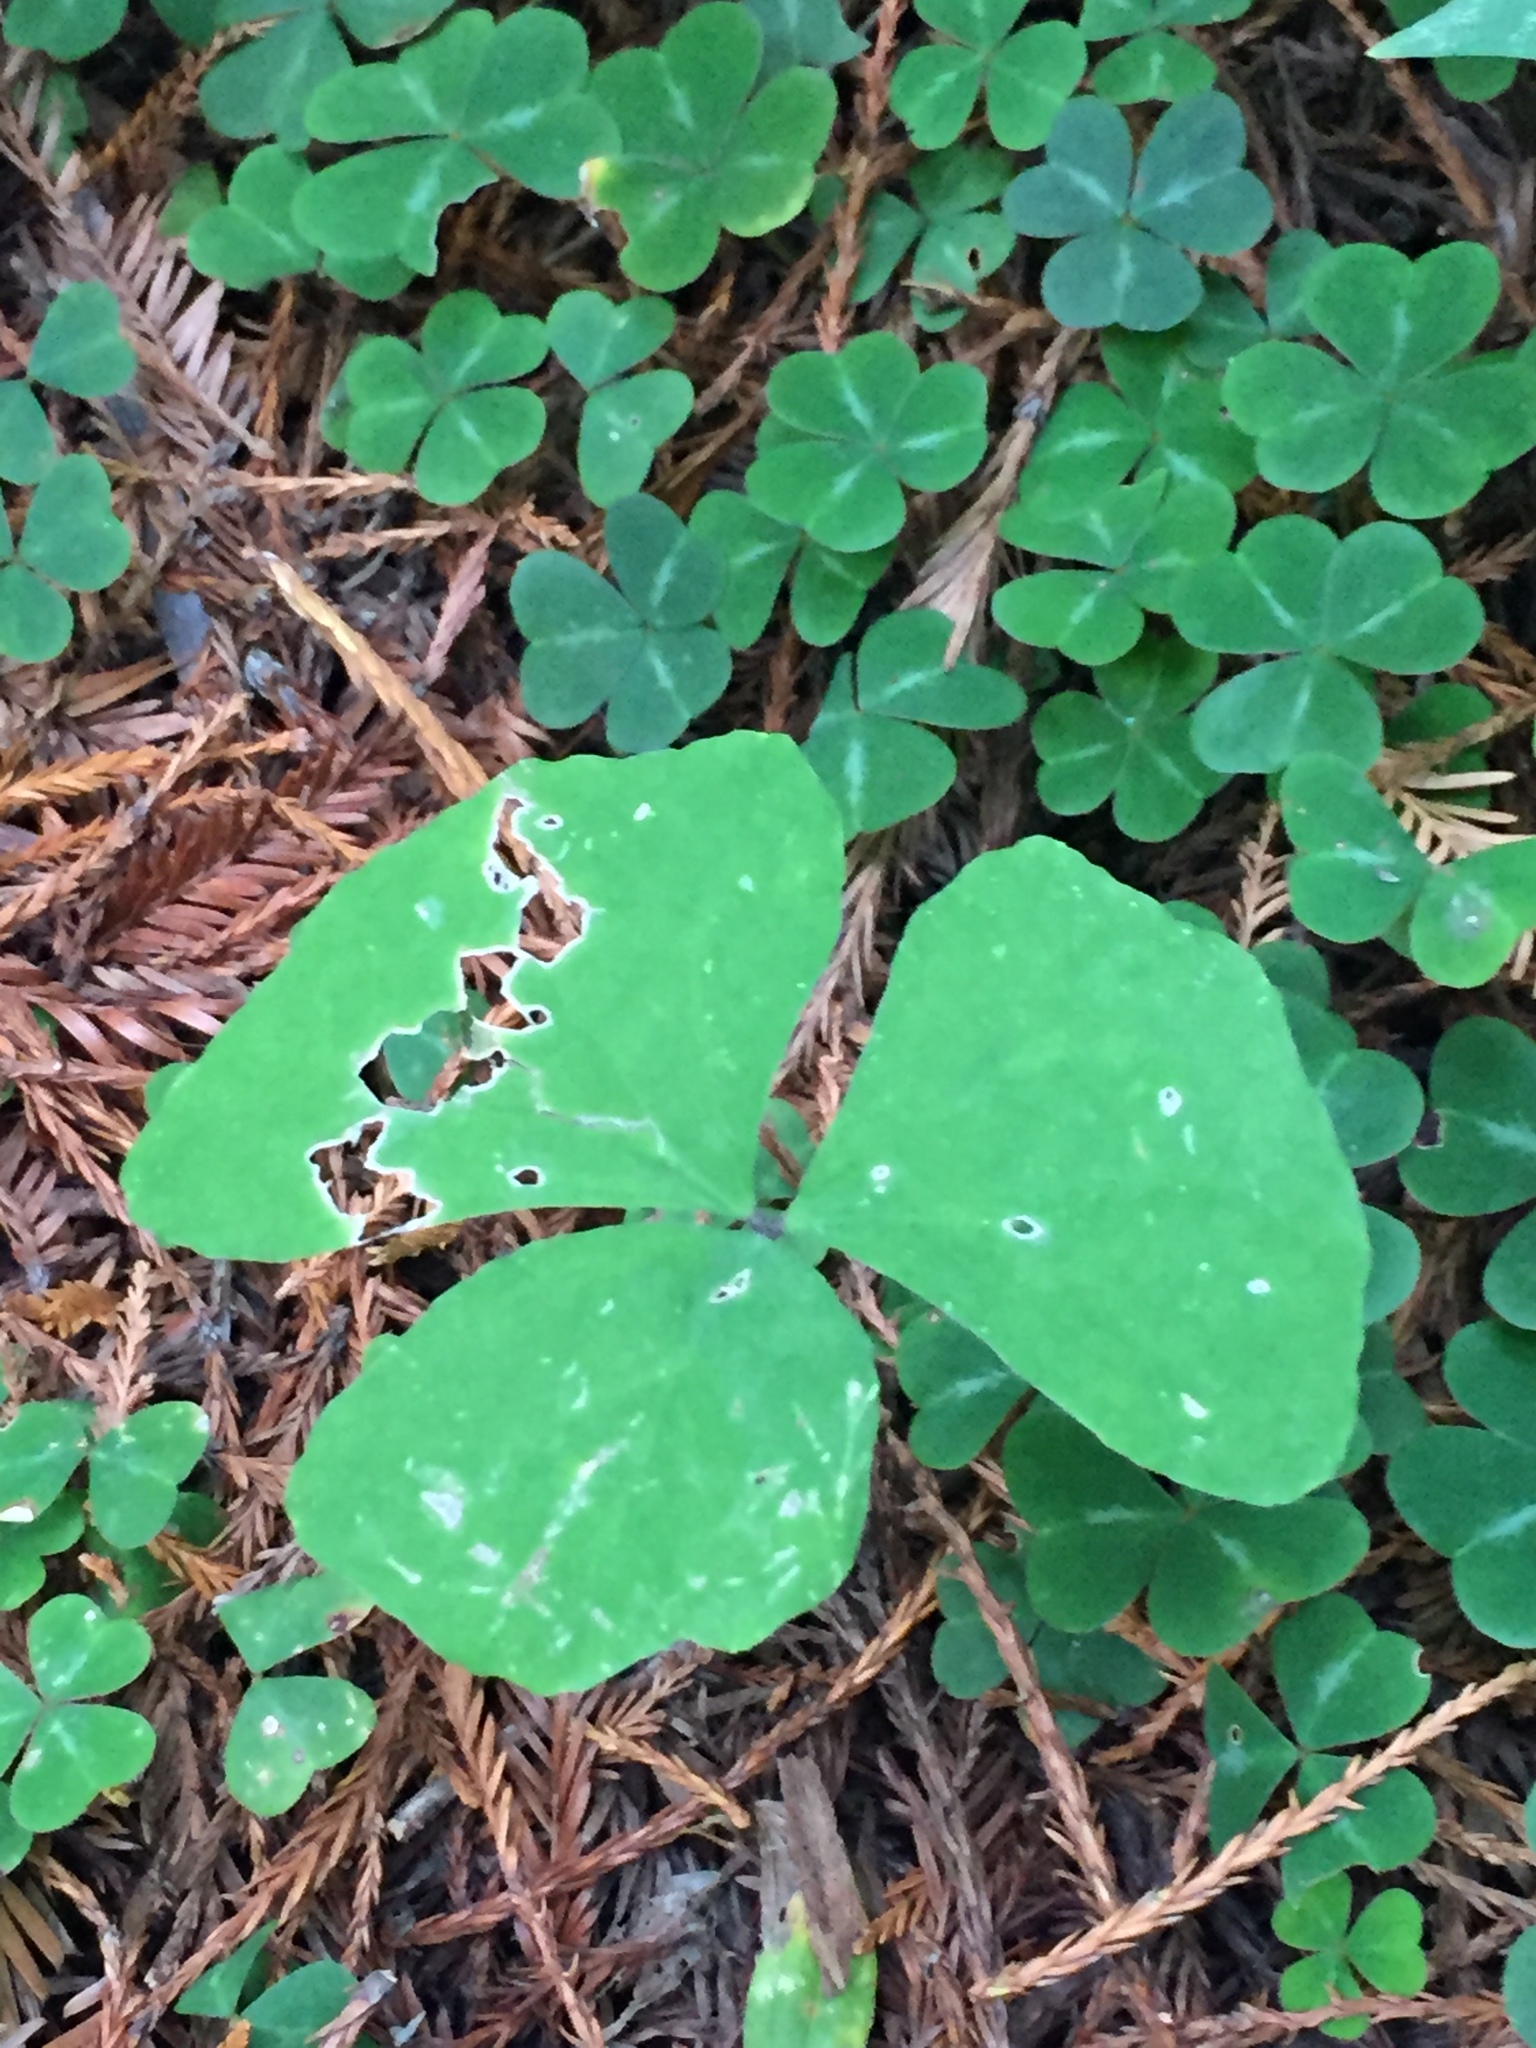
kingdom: Plantae
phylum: Tracheophyta
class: Magnoliopsida
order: Ranunculales
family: Berberidaceae
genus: Achlys
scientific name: Achlys triphylla
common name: Vanilla-leaf
